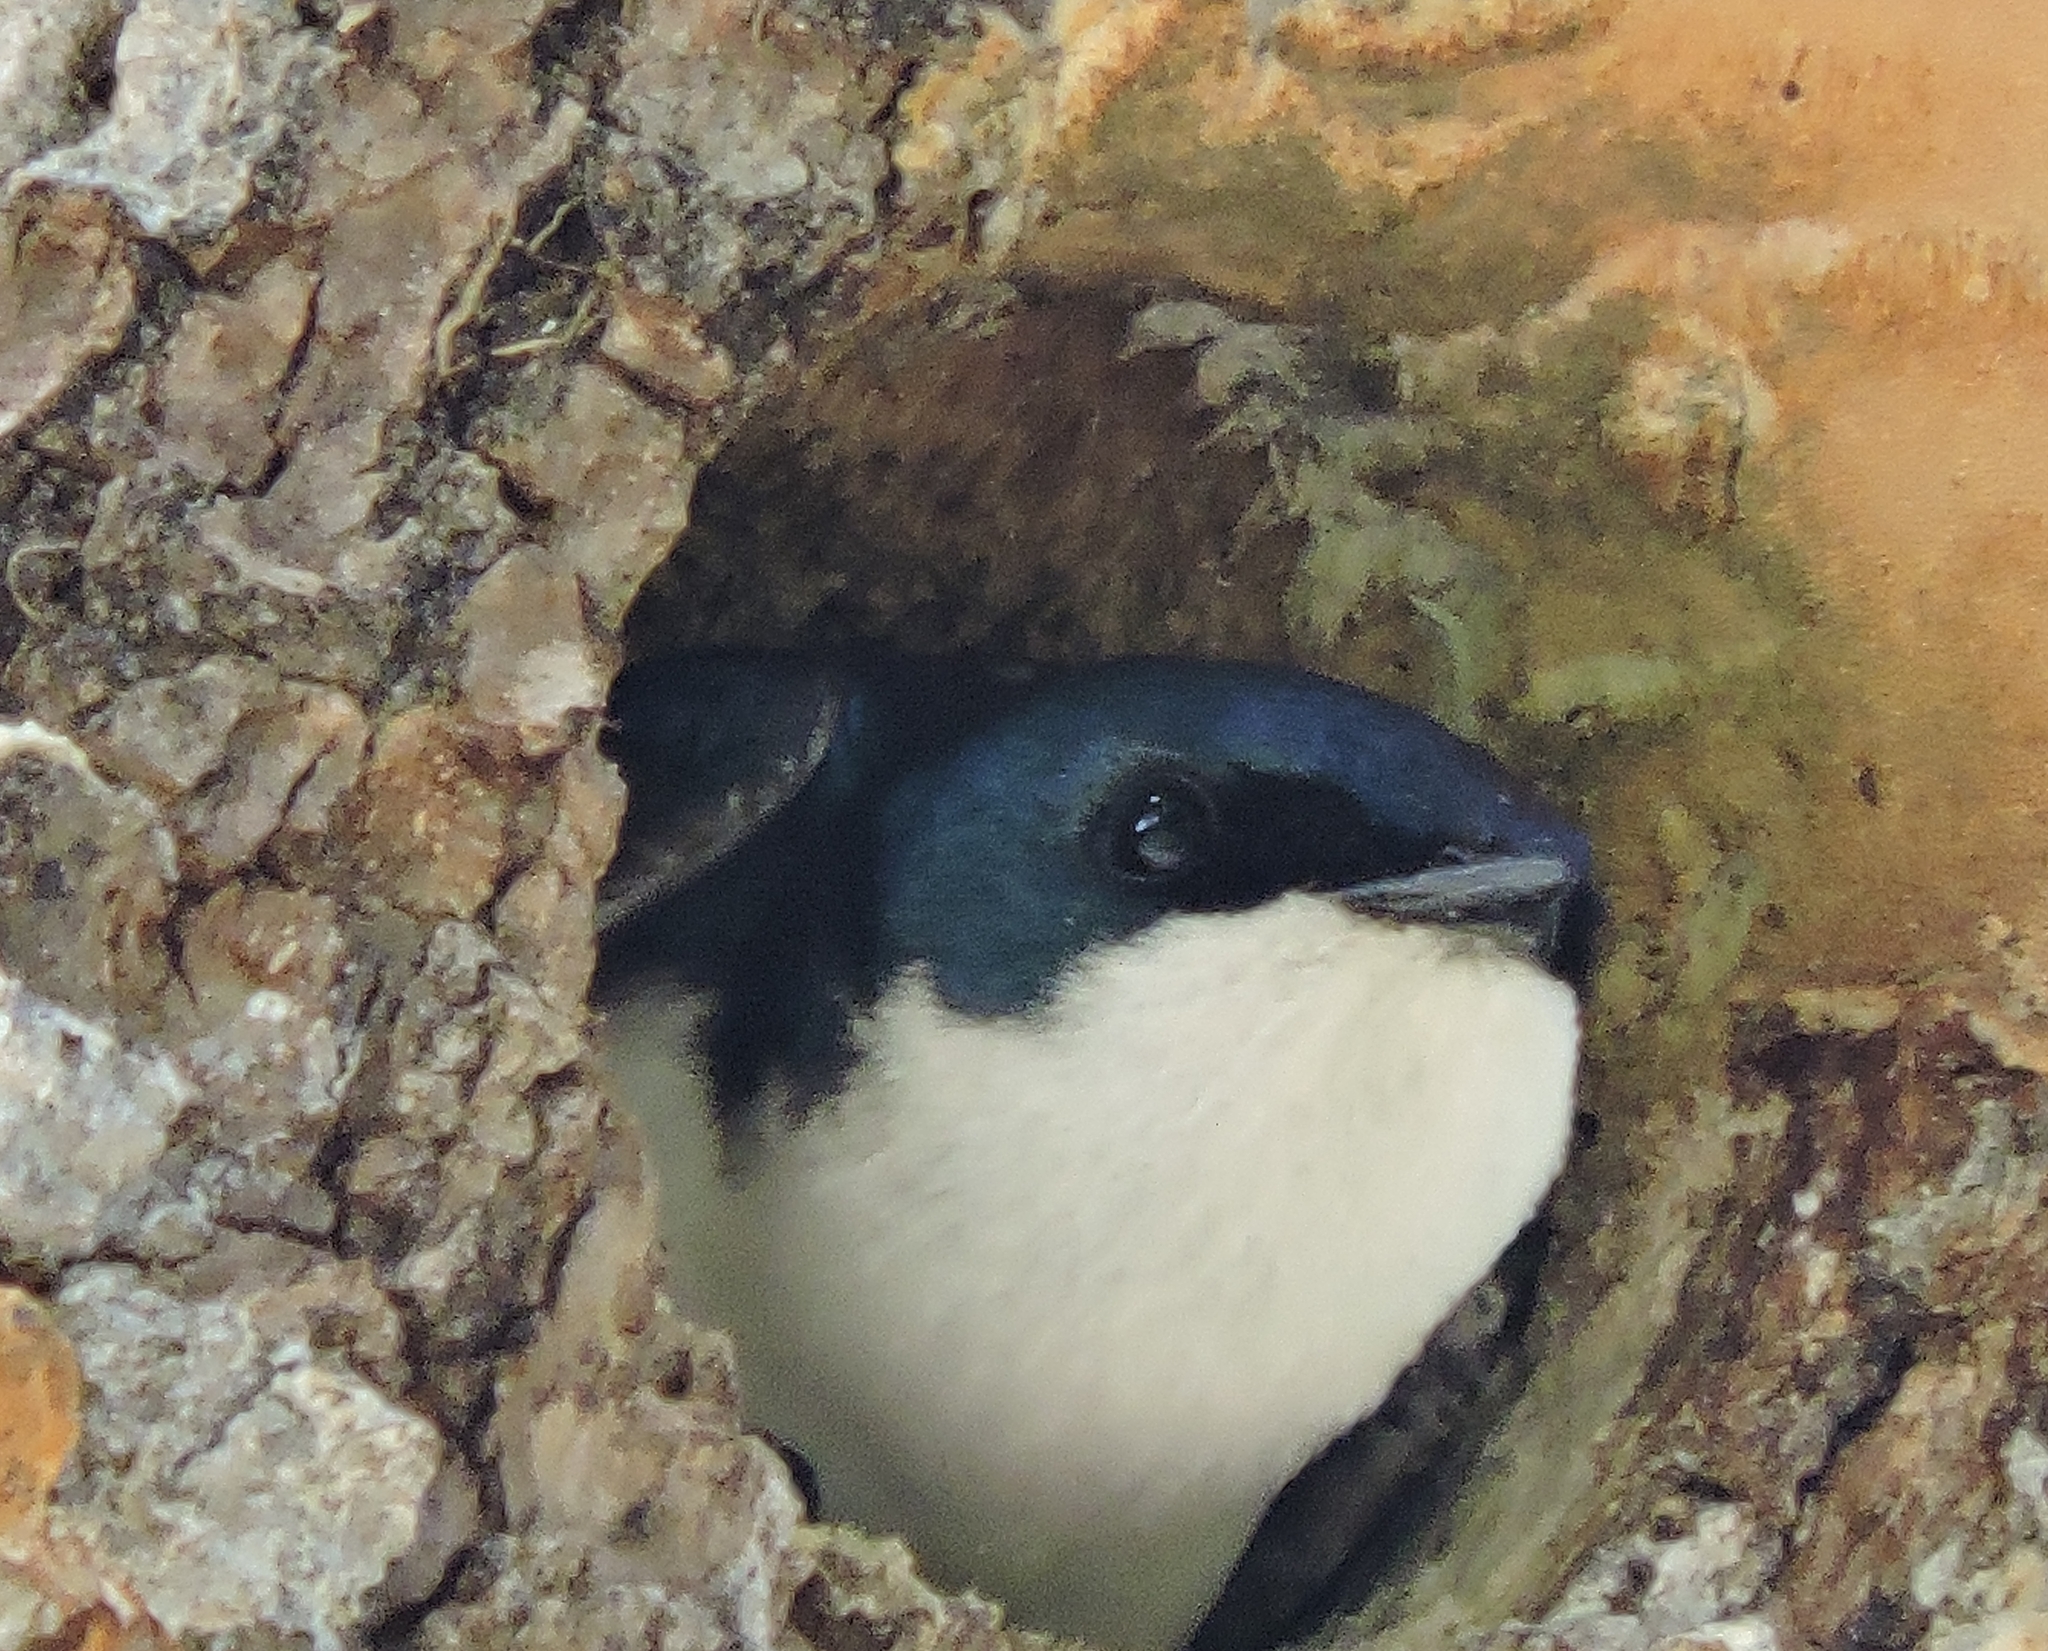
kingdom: Animalia
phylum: Chordata
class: Aves
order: Passeriformes
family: Hirundinidae
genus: Tachycineta
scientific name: Tachycineta bicolor
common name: Tree swallow
